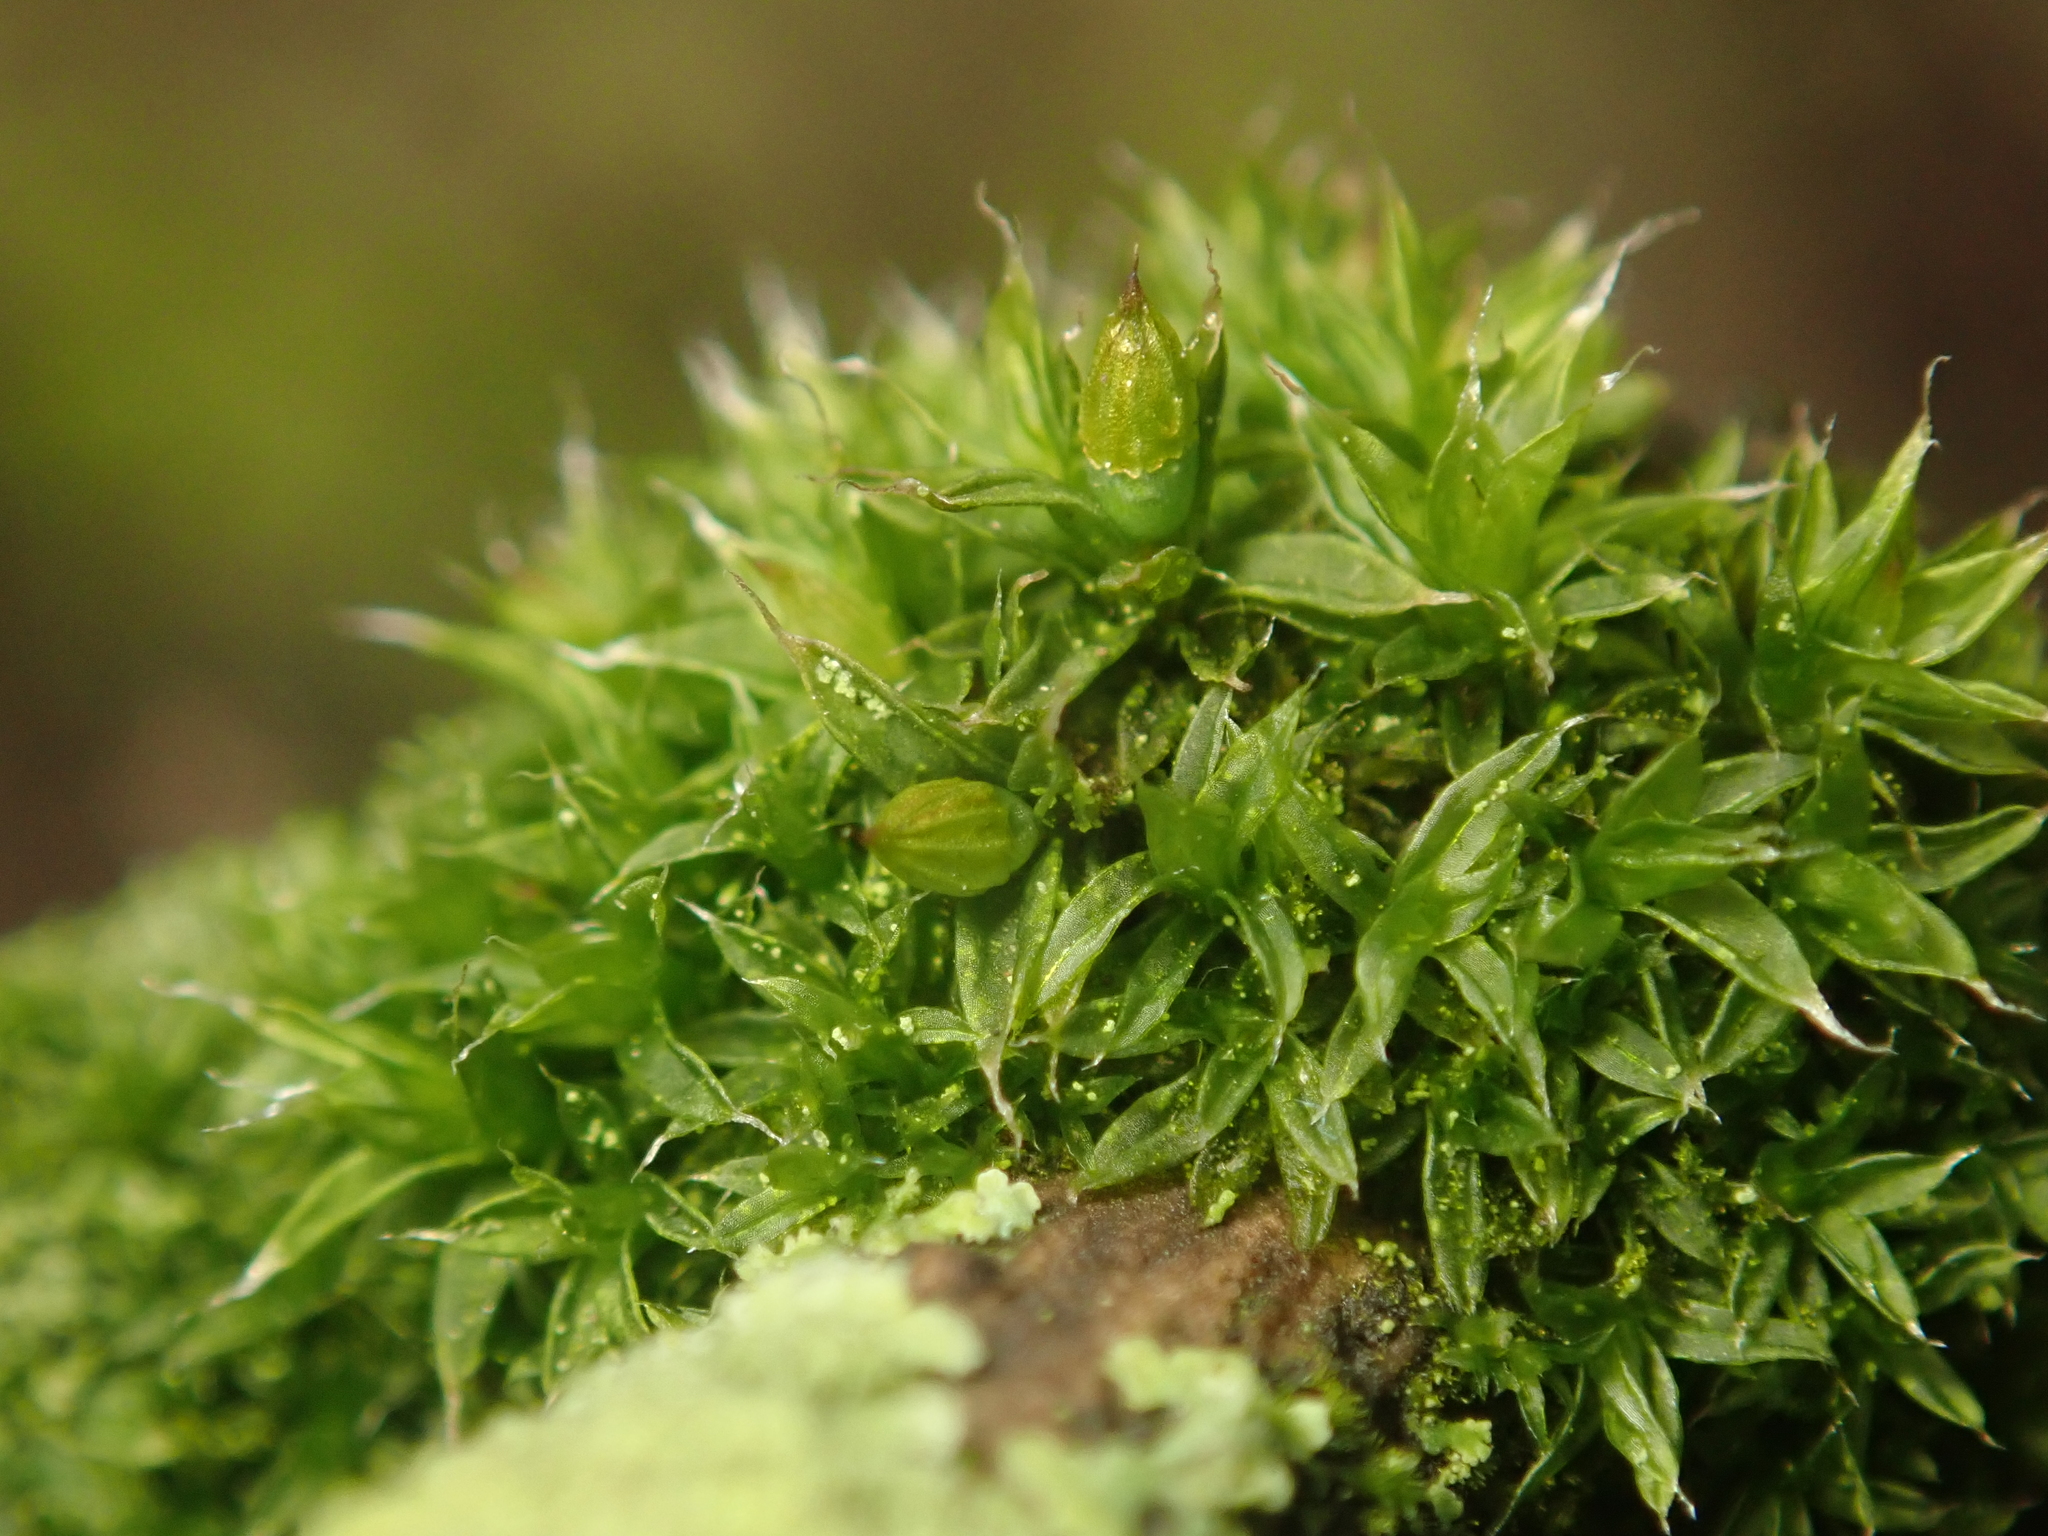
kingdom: Plantae
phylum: Bryophyta
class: Bryopsida
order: Orthotrichales
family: Orthotrichaceae
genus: Orthotrichum
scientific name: Orthotrichum diaphanum
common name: White-tipped bristle-moss
